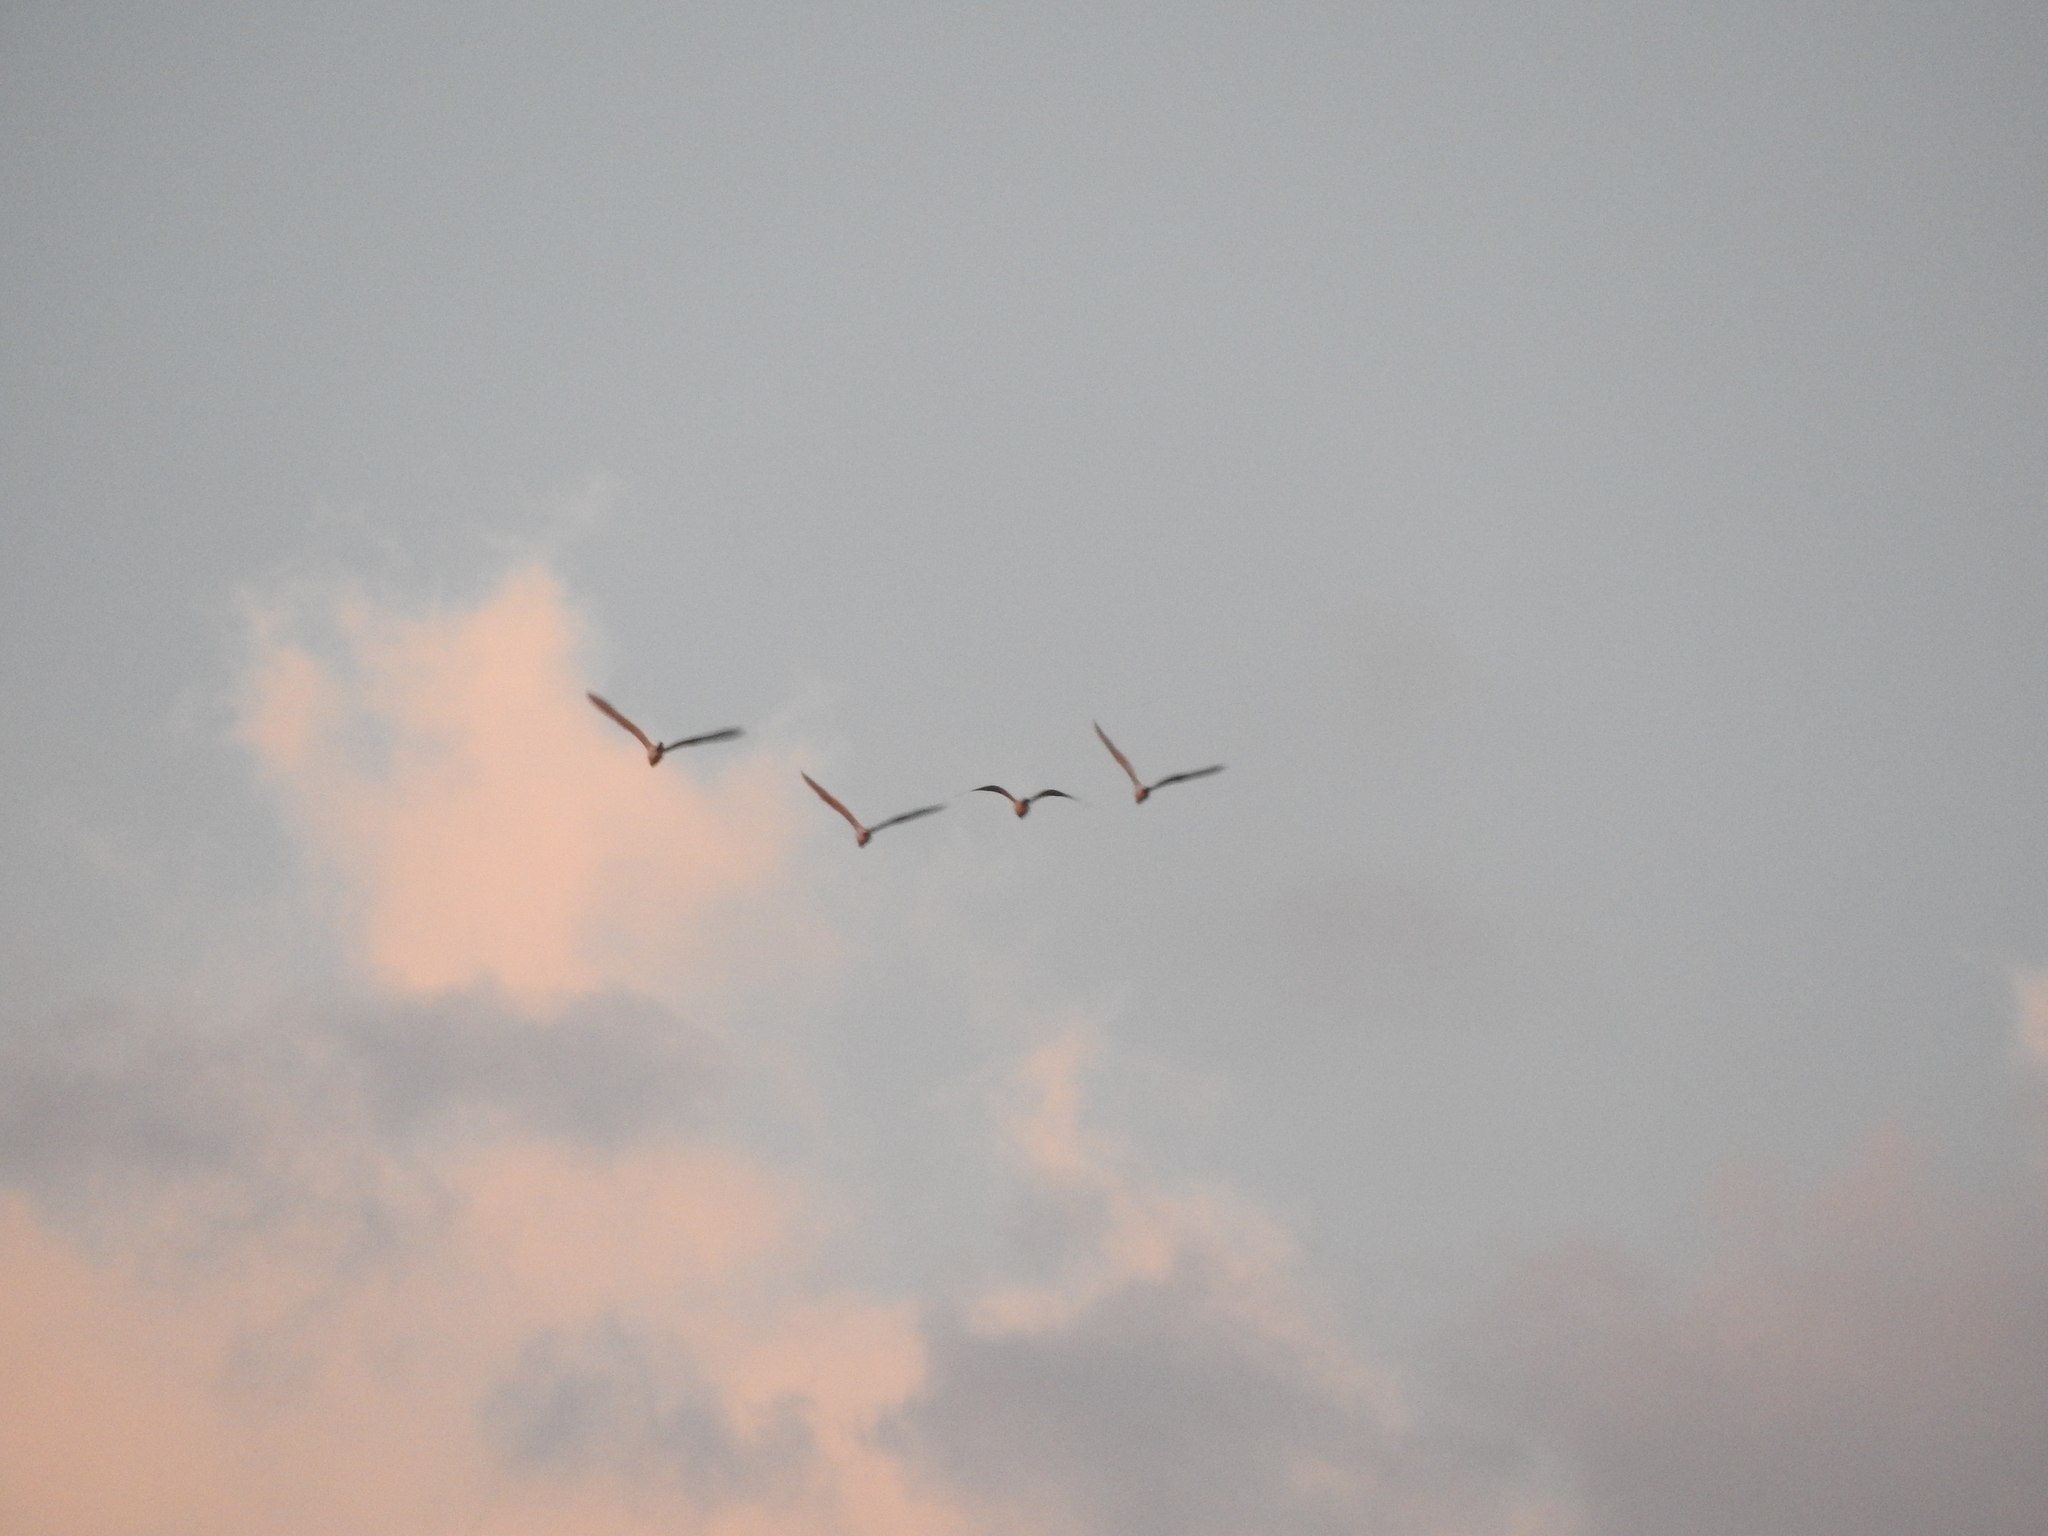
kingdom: Animalia
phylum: Chordata
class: Aves
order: Pelecaniformes
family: Ardeidae
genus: Bubulcus
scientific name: Bubulcus ibis
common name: Cattle egret
